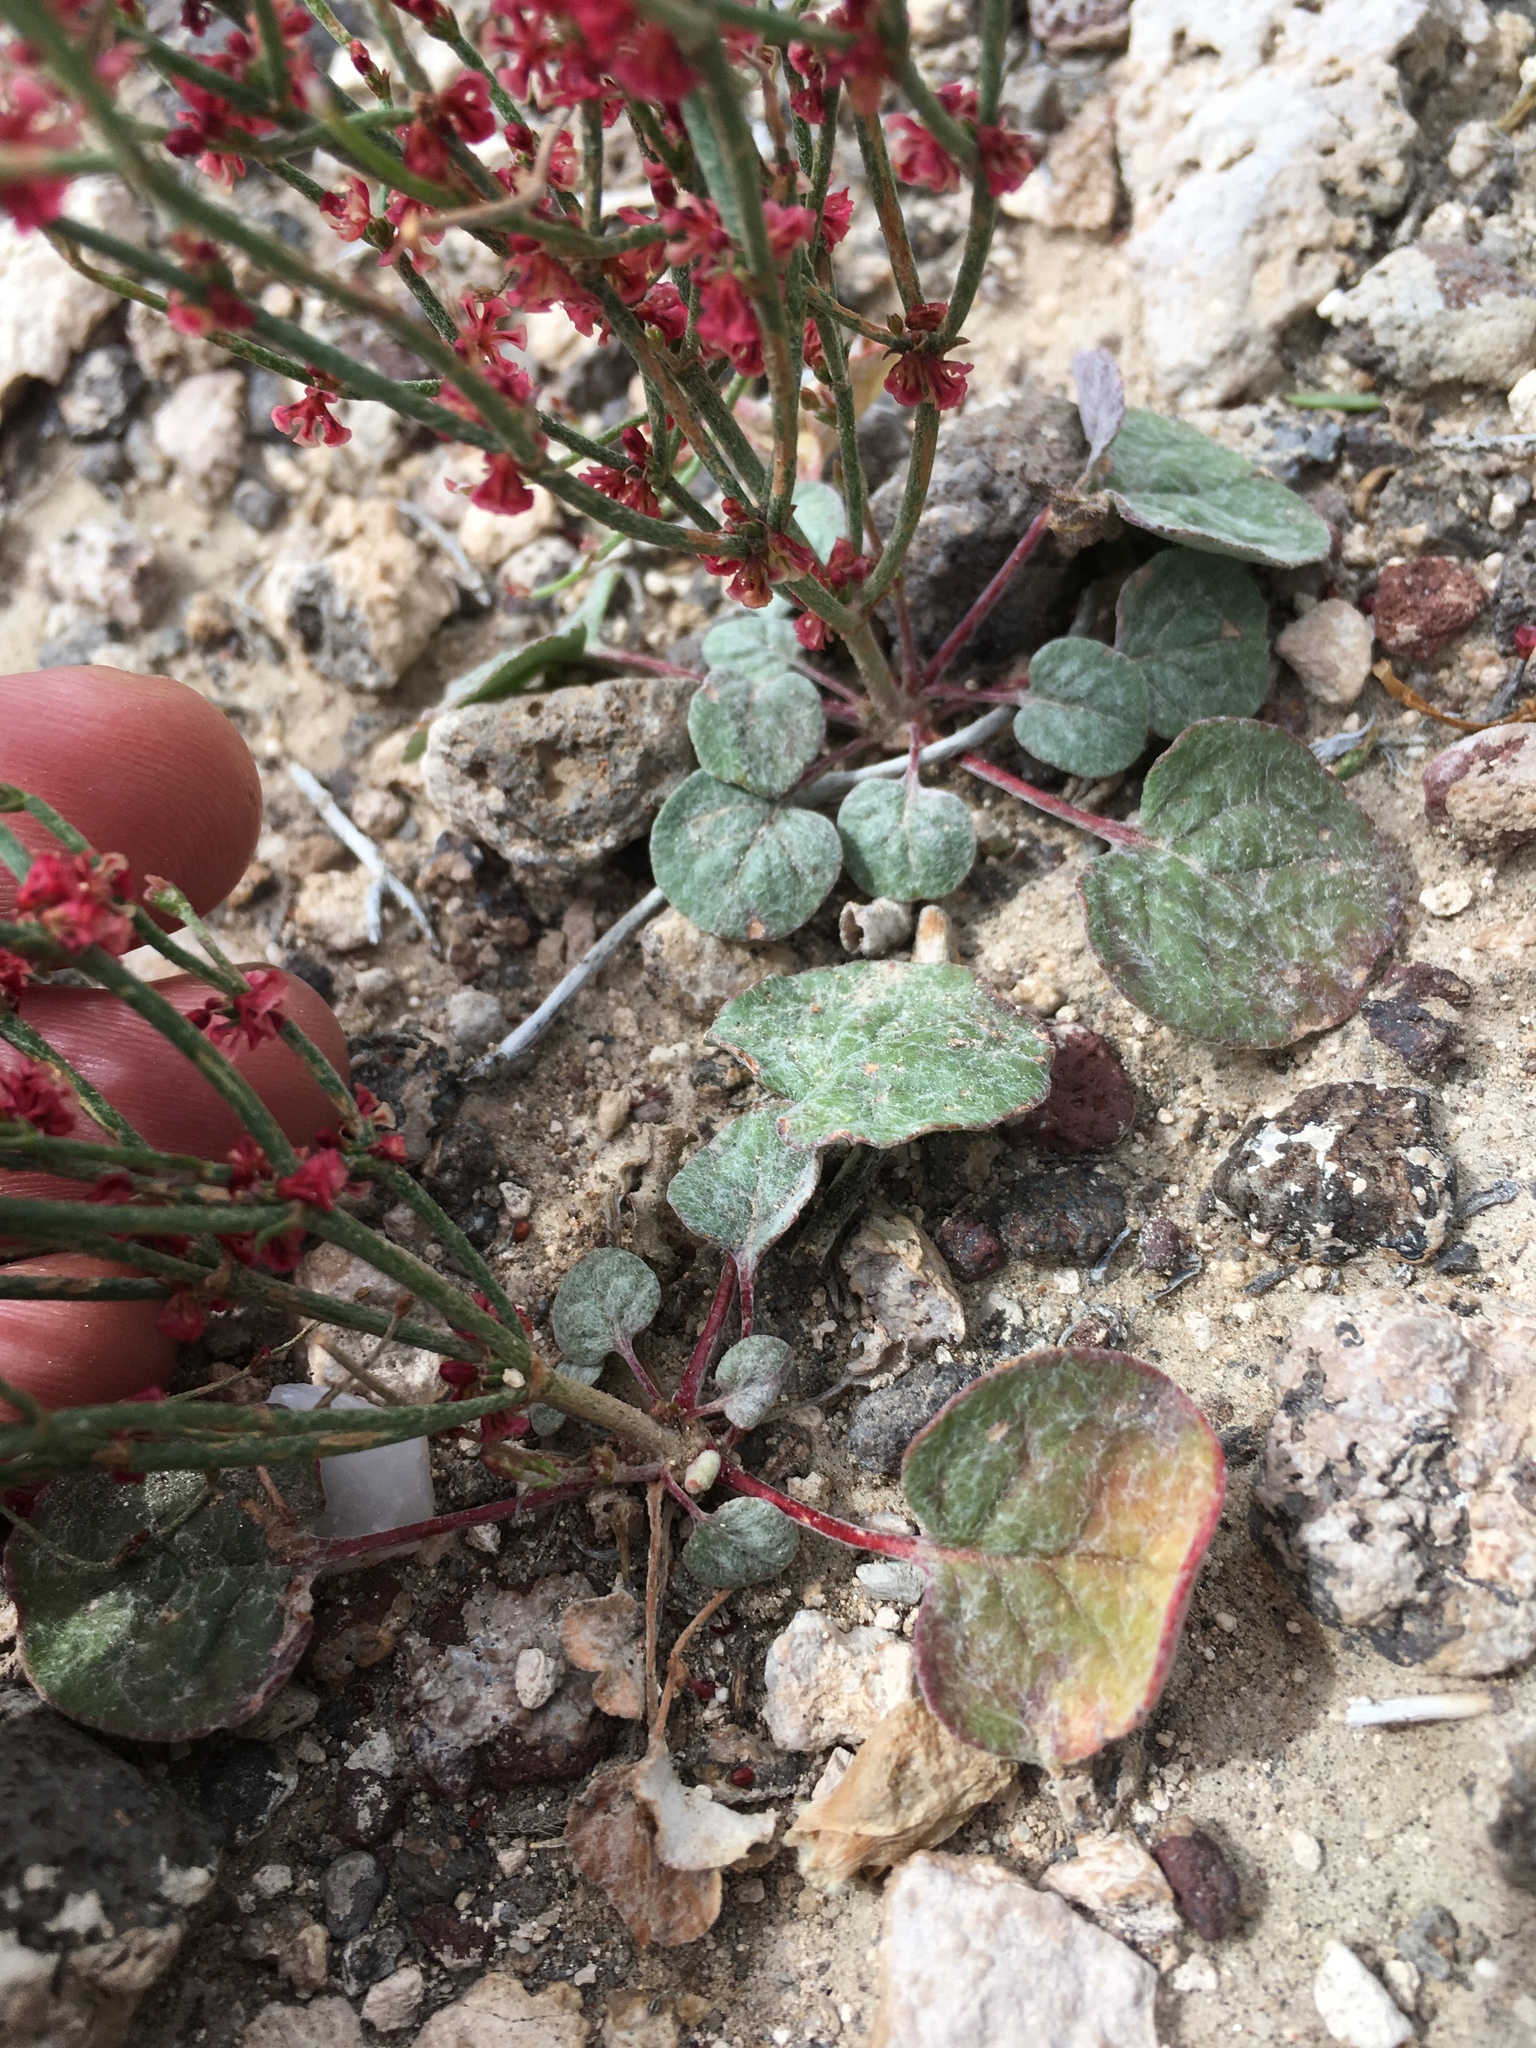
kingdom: Plantae
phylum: Tracheophyta
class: Magnoliopsida
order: Caryophyllales
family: Polygonaceae
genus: Eriogonum
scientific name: Eriogonum nidularium
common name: Bird's-nest wild buckwheat
